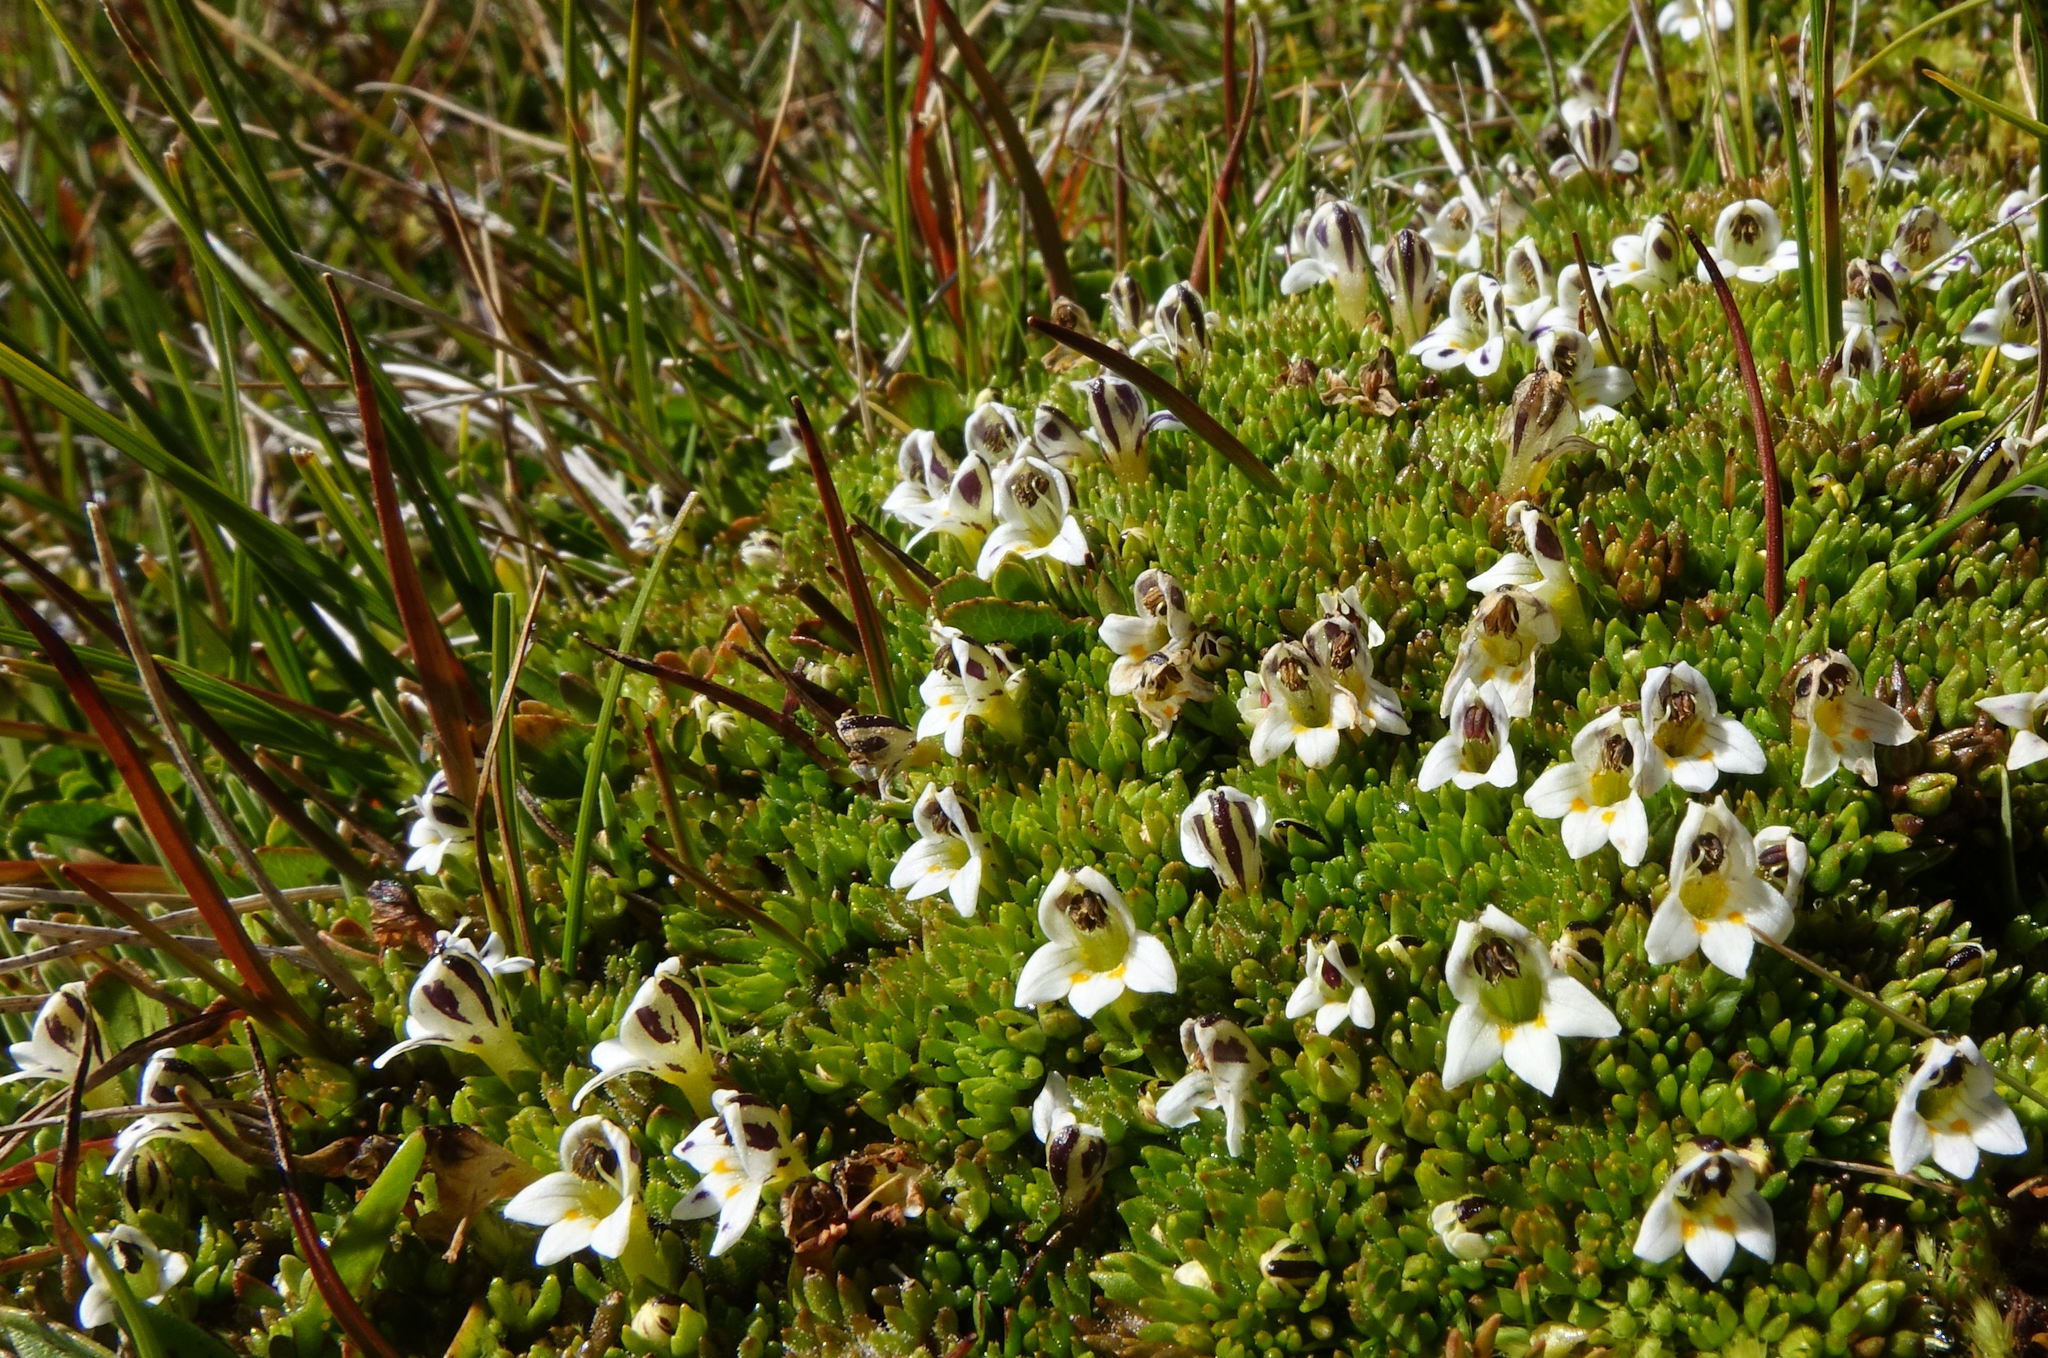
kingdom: Plantae
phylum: Tracheophyta
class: Magnoliopsida
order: Lamiales
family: Orobanchaceae
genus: Euphrasia
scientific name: Euphrasia dyeri
